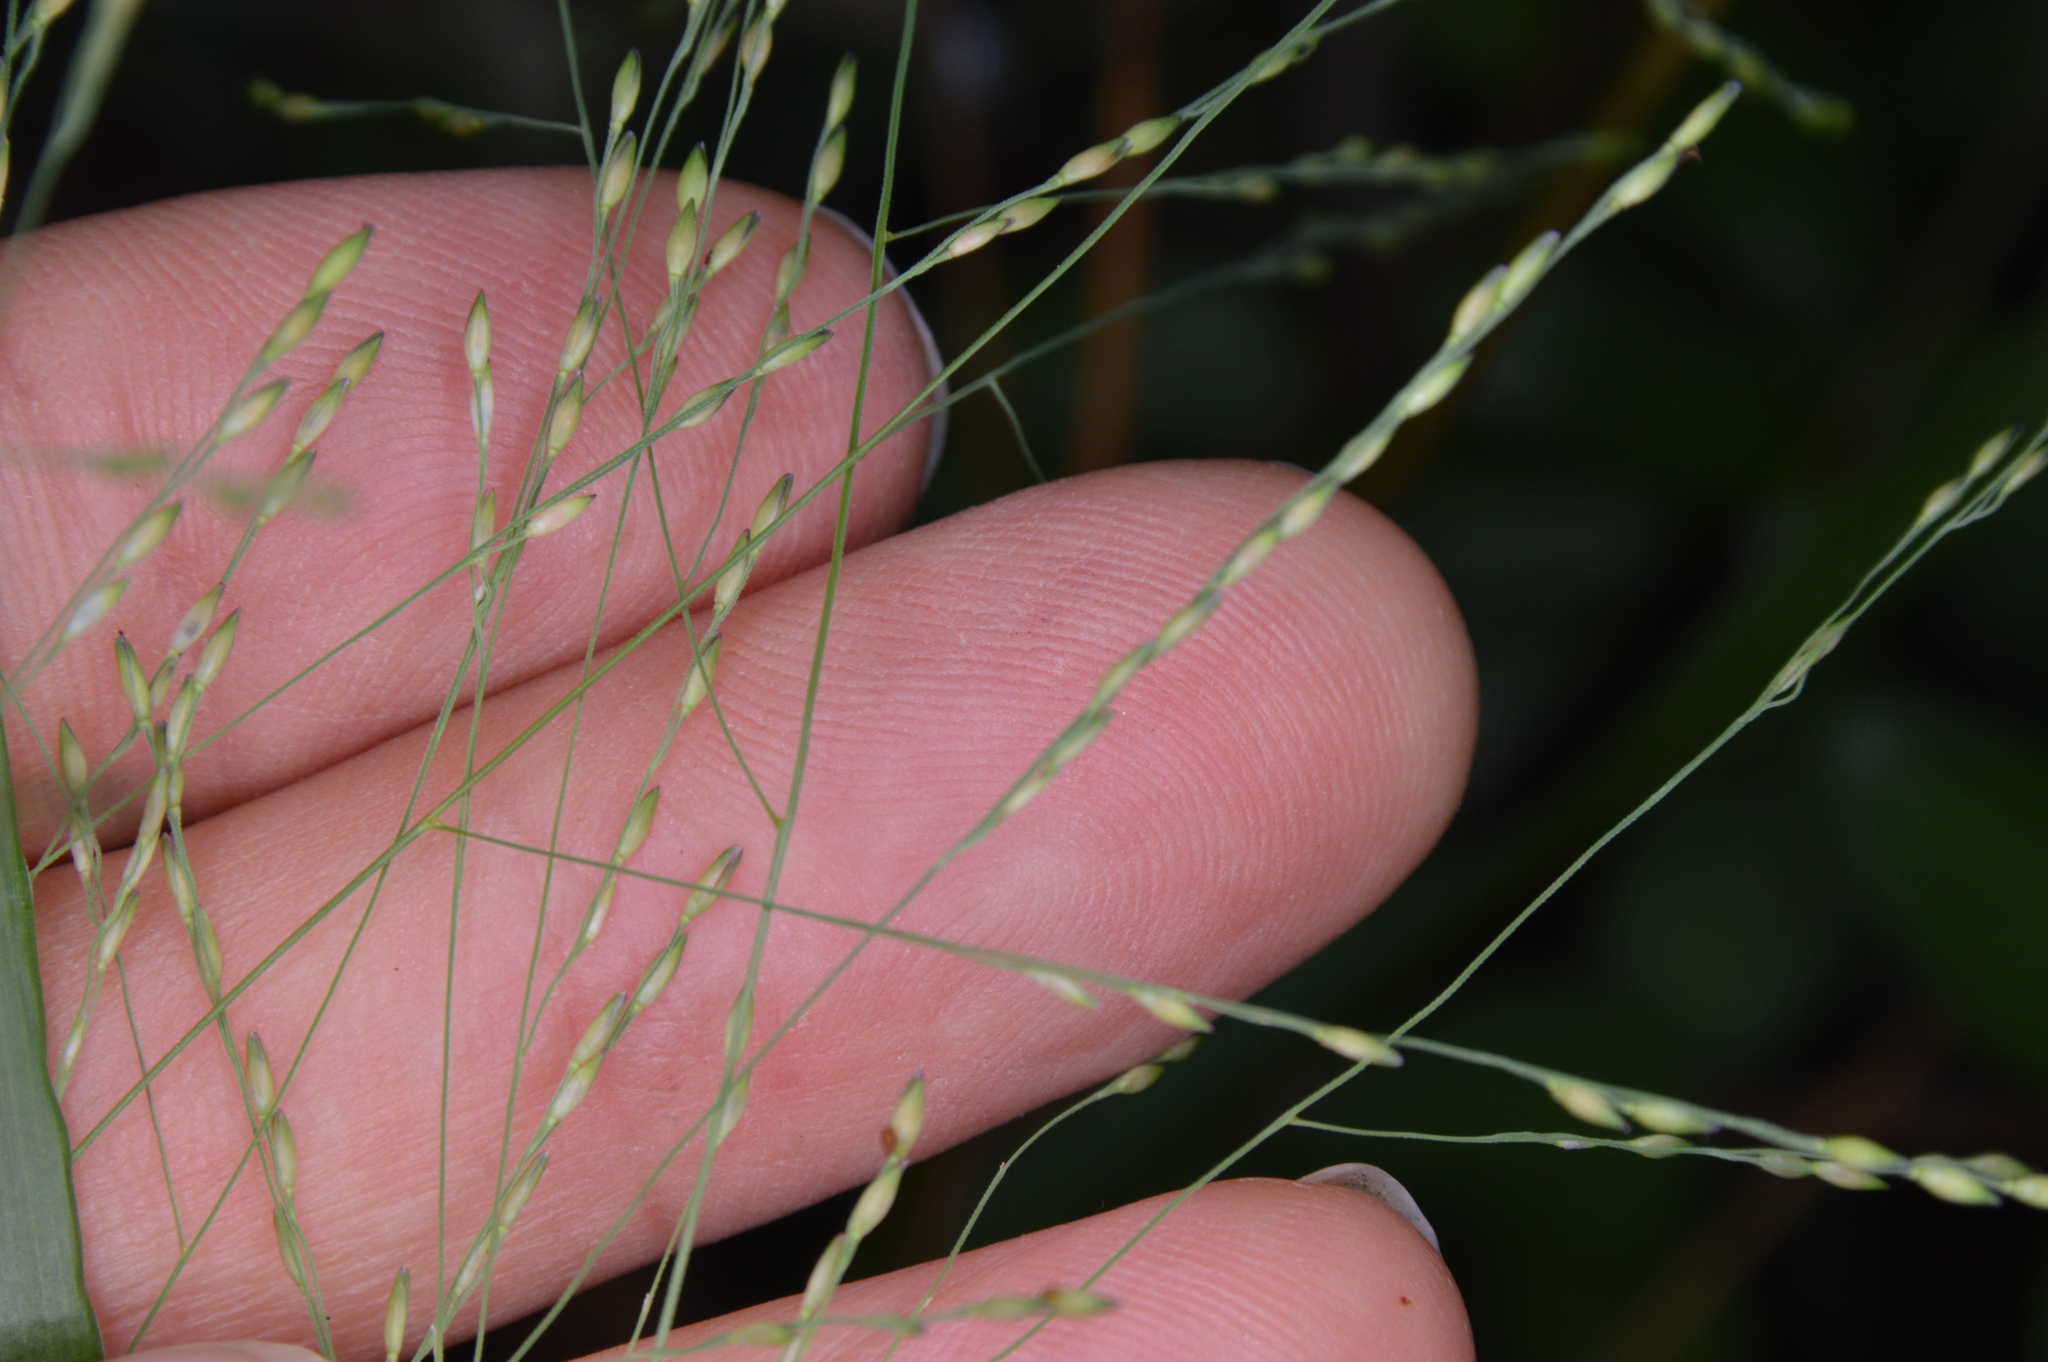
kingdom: Plantae
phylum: Tracheophyta
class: Liliopsida
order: Poales
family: Poaceae
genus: Panicum
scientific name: Panicum dichotomiflorum
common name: Autumn millet
